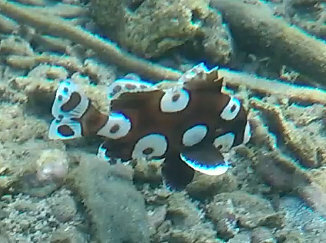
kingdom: Animalia
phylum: Chordata
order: Perciformes
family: Haemulidae
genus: Plectorhinchus
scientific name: Plectorhinchus chaetodonoides
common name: Harlequin sweetlips
